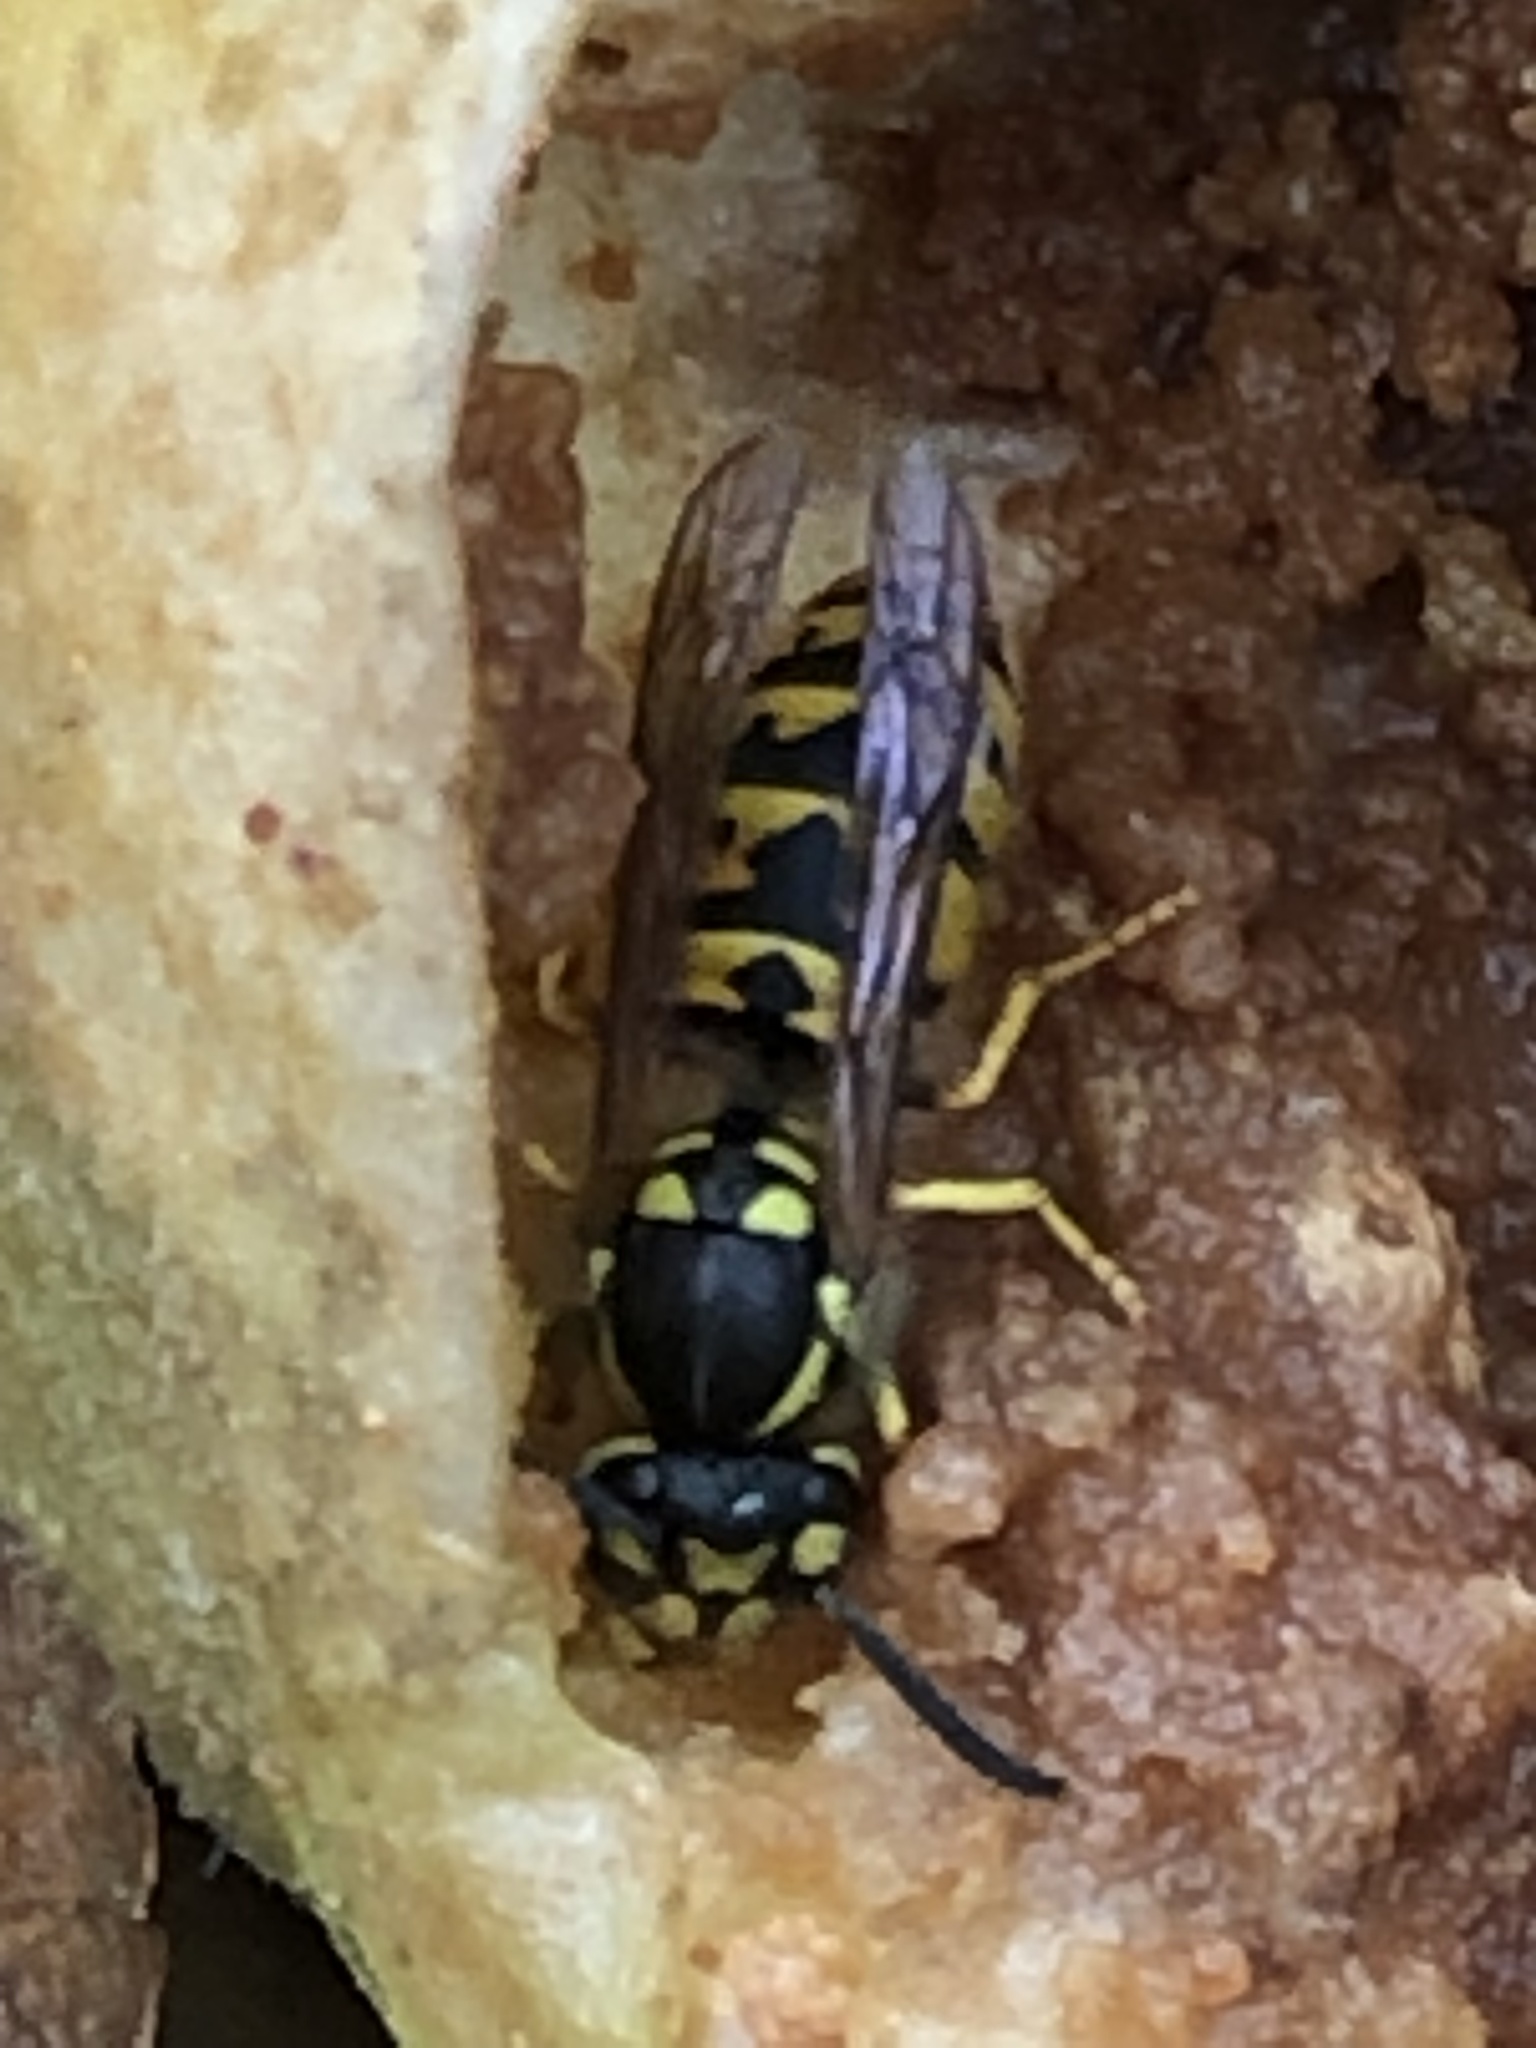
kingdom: Animalia
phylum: Arthropoda
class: Insecta
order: Hymenoptera
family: Vespidae
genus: Vespula
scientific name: Vespula germanica
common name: German wasp
